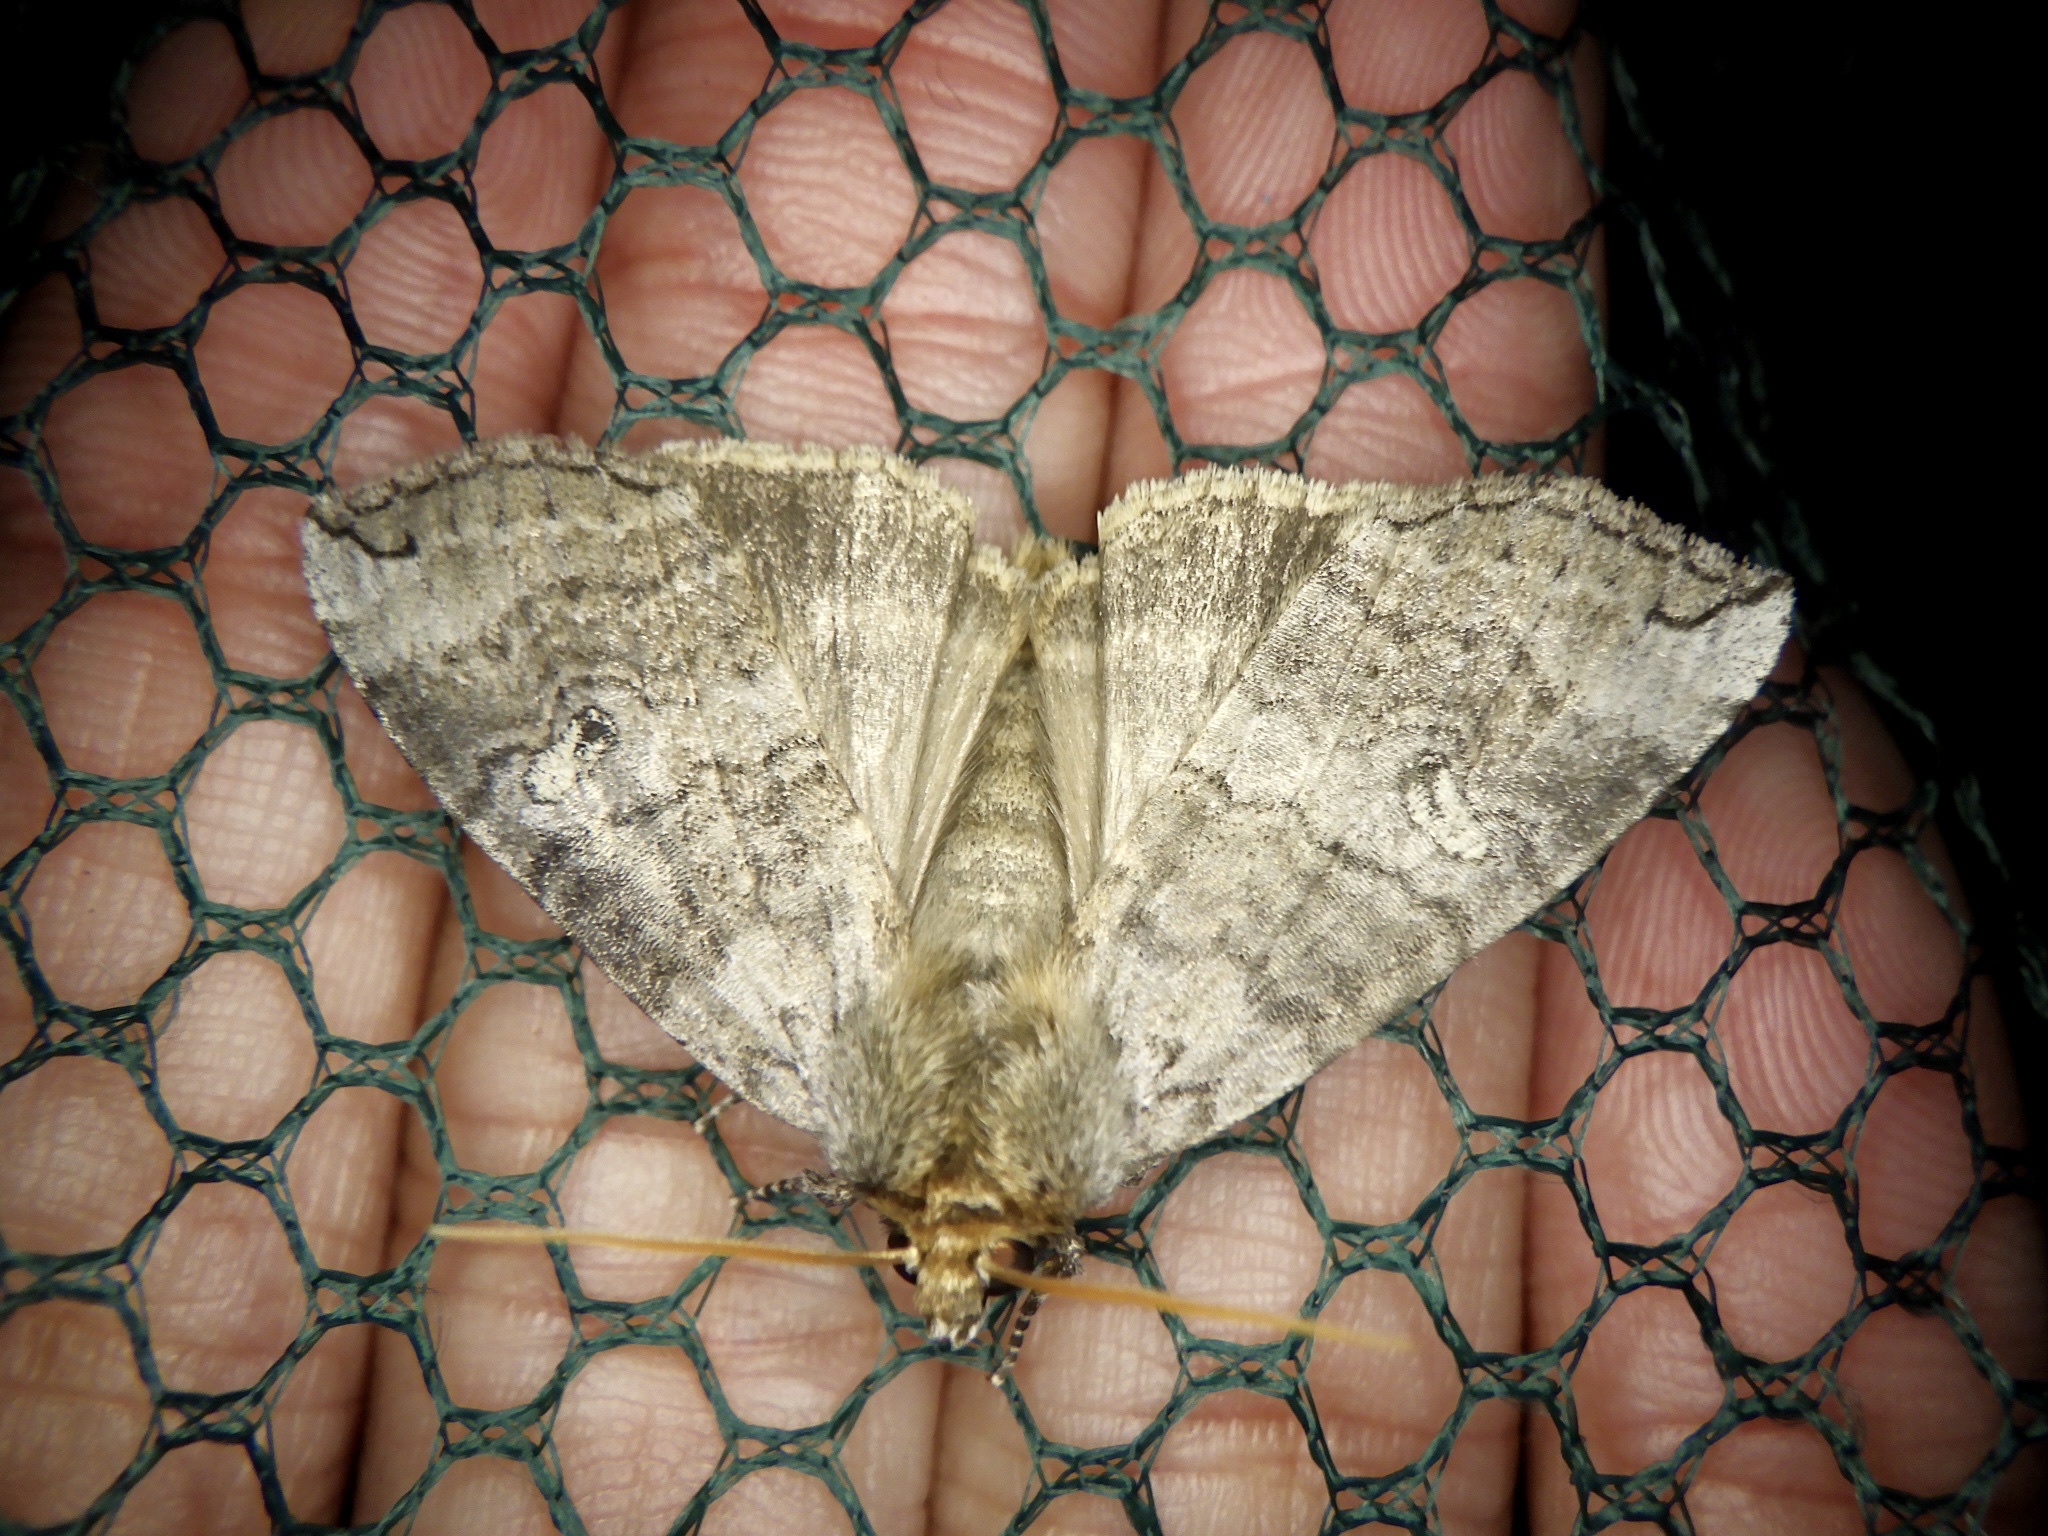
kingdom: Animalia
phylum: Arthropoda
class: Insecta
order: Lepidoptera
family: Drepanidae
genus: Tethea
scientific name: Tethea ampliata
